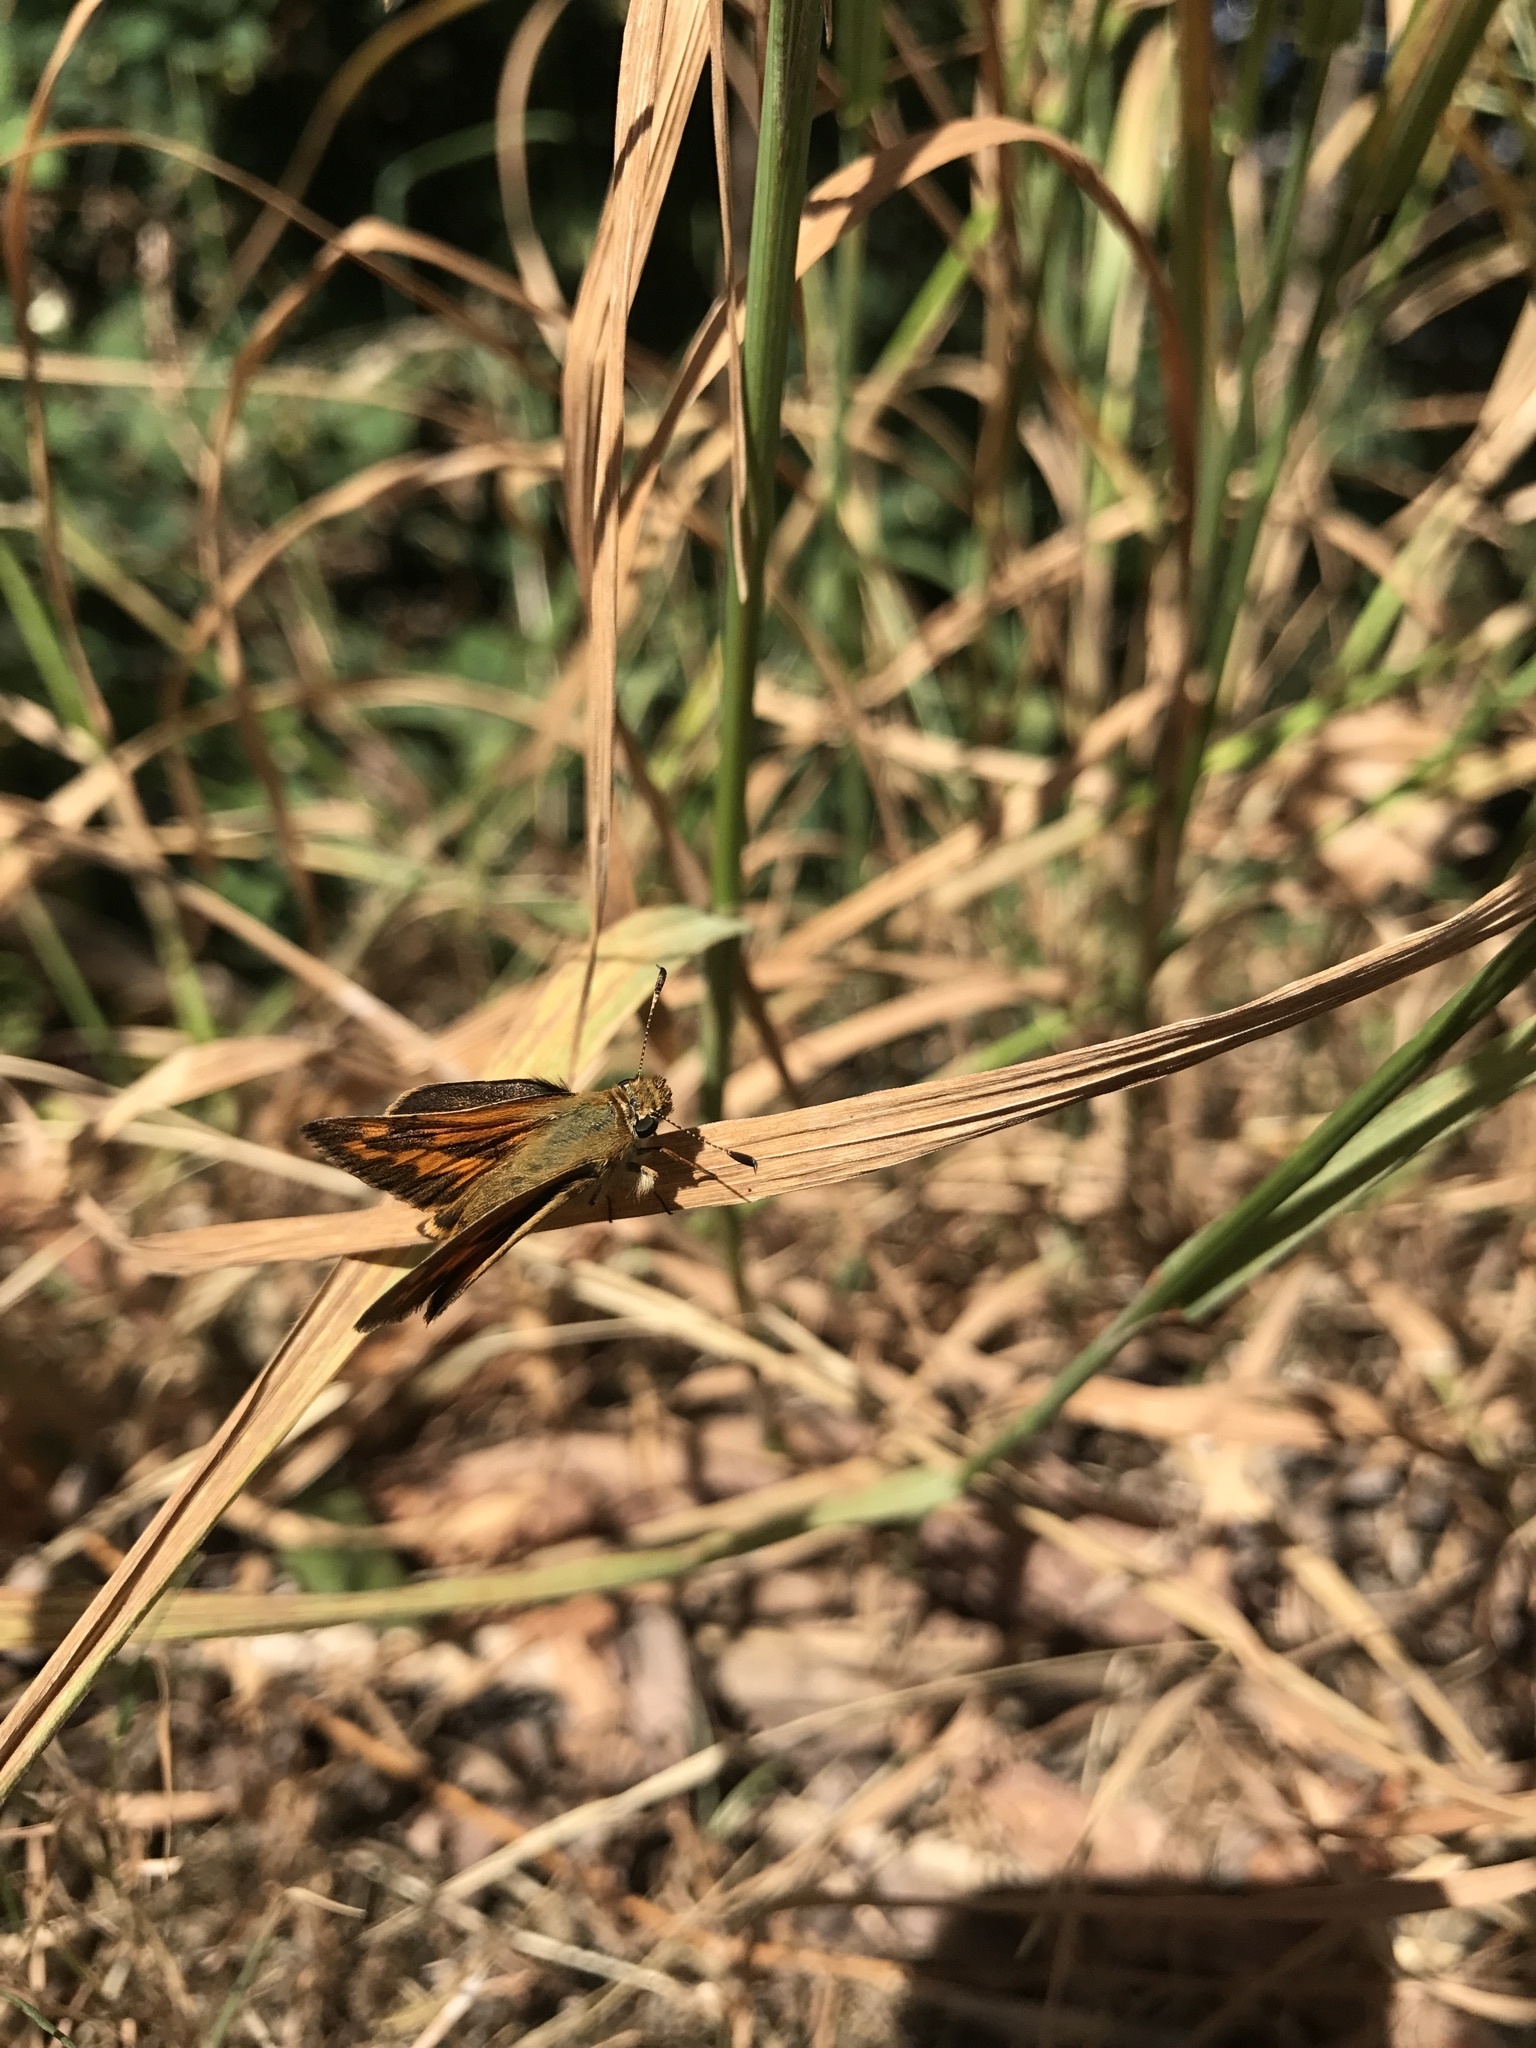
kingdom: Animalia
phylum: Arthropoda
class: Insecta
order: Lepidoptera
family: Hesperiidae
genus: Ochlodes
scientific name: Ochlodes sylvanoides
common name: Woodland skipper
